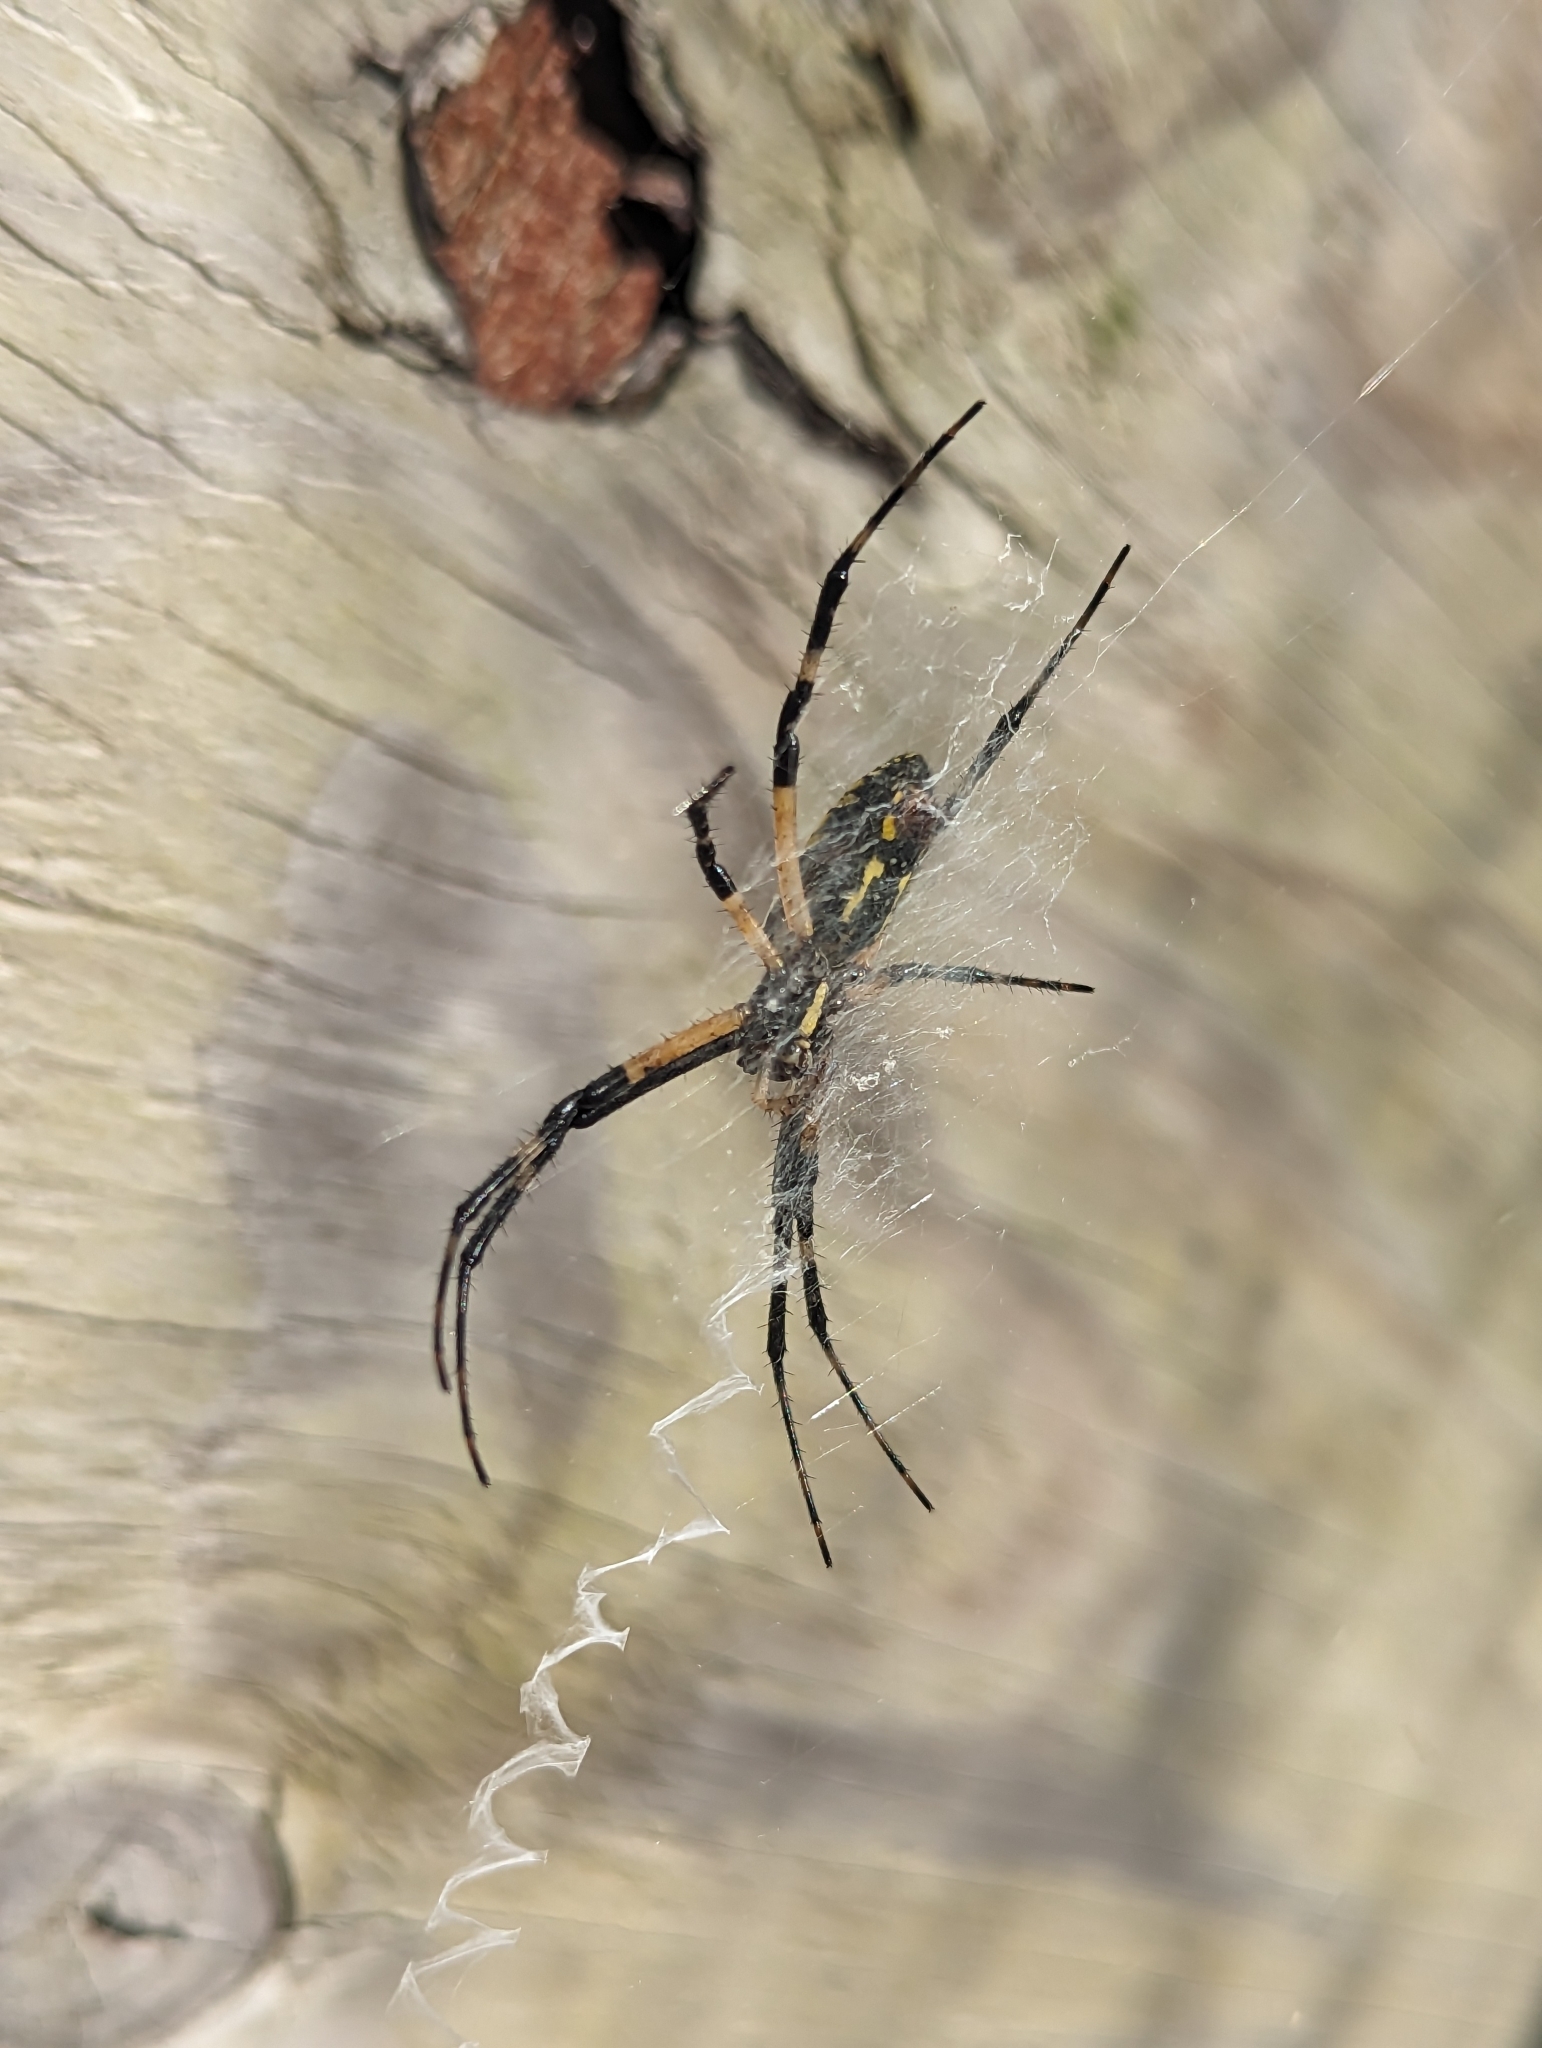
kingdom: Animalia
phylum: Arthropoda
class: Arachnida
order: Araneae
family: Araneidae
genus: Argiope
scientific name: Argiope aurantia
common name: Orb weavers
